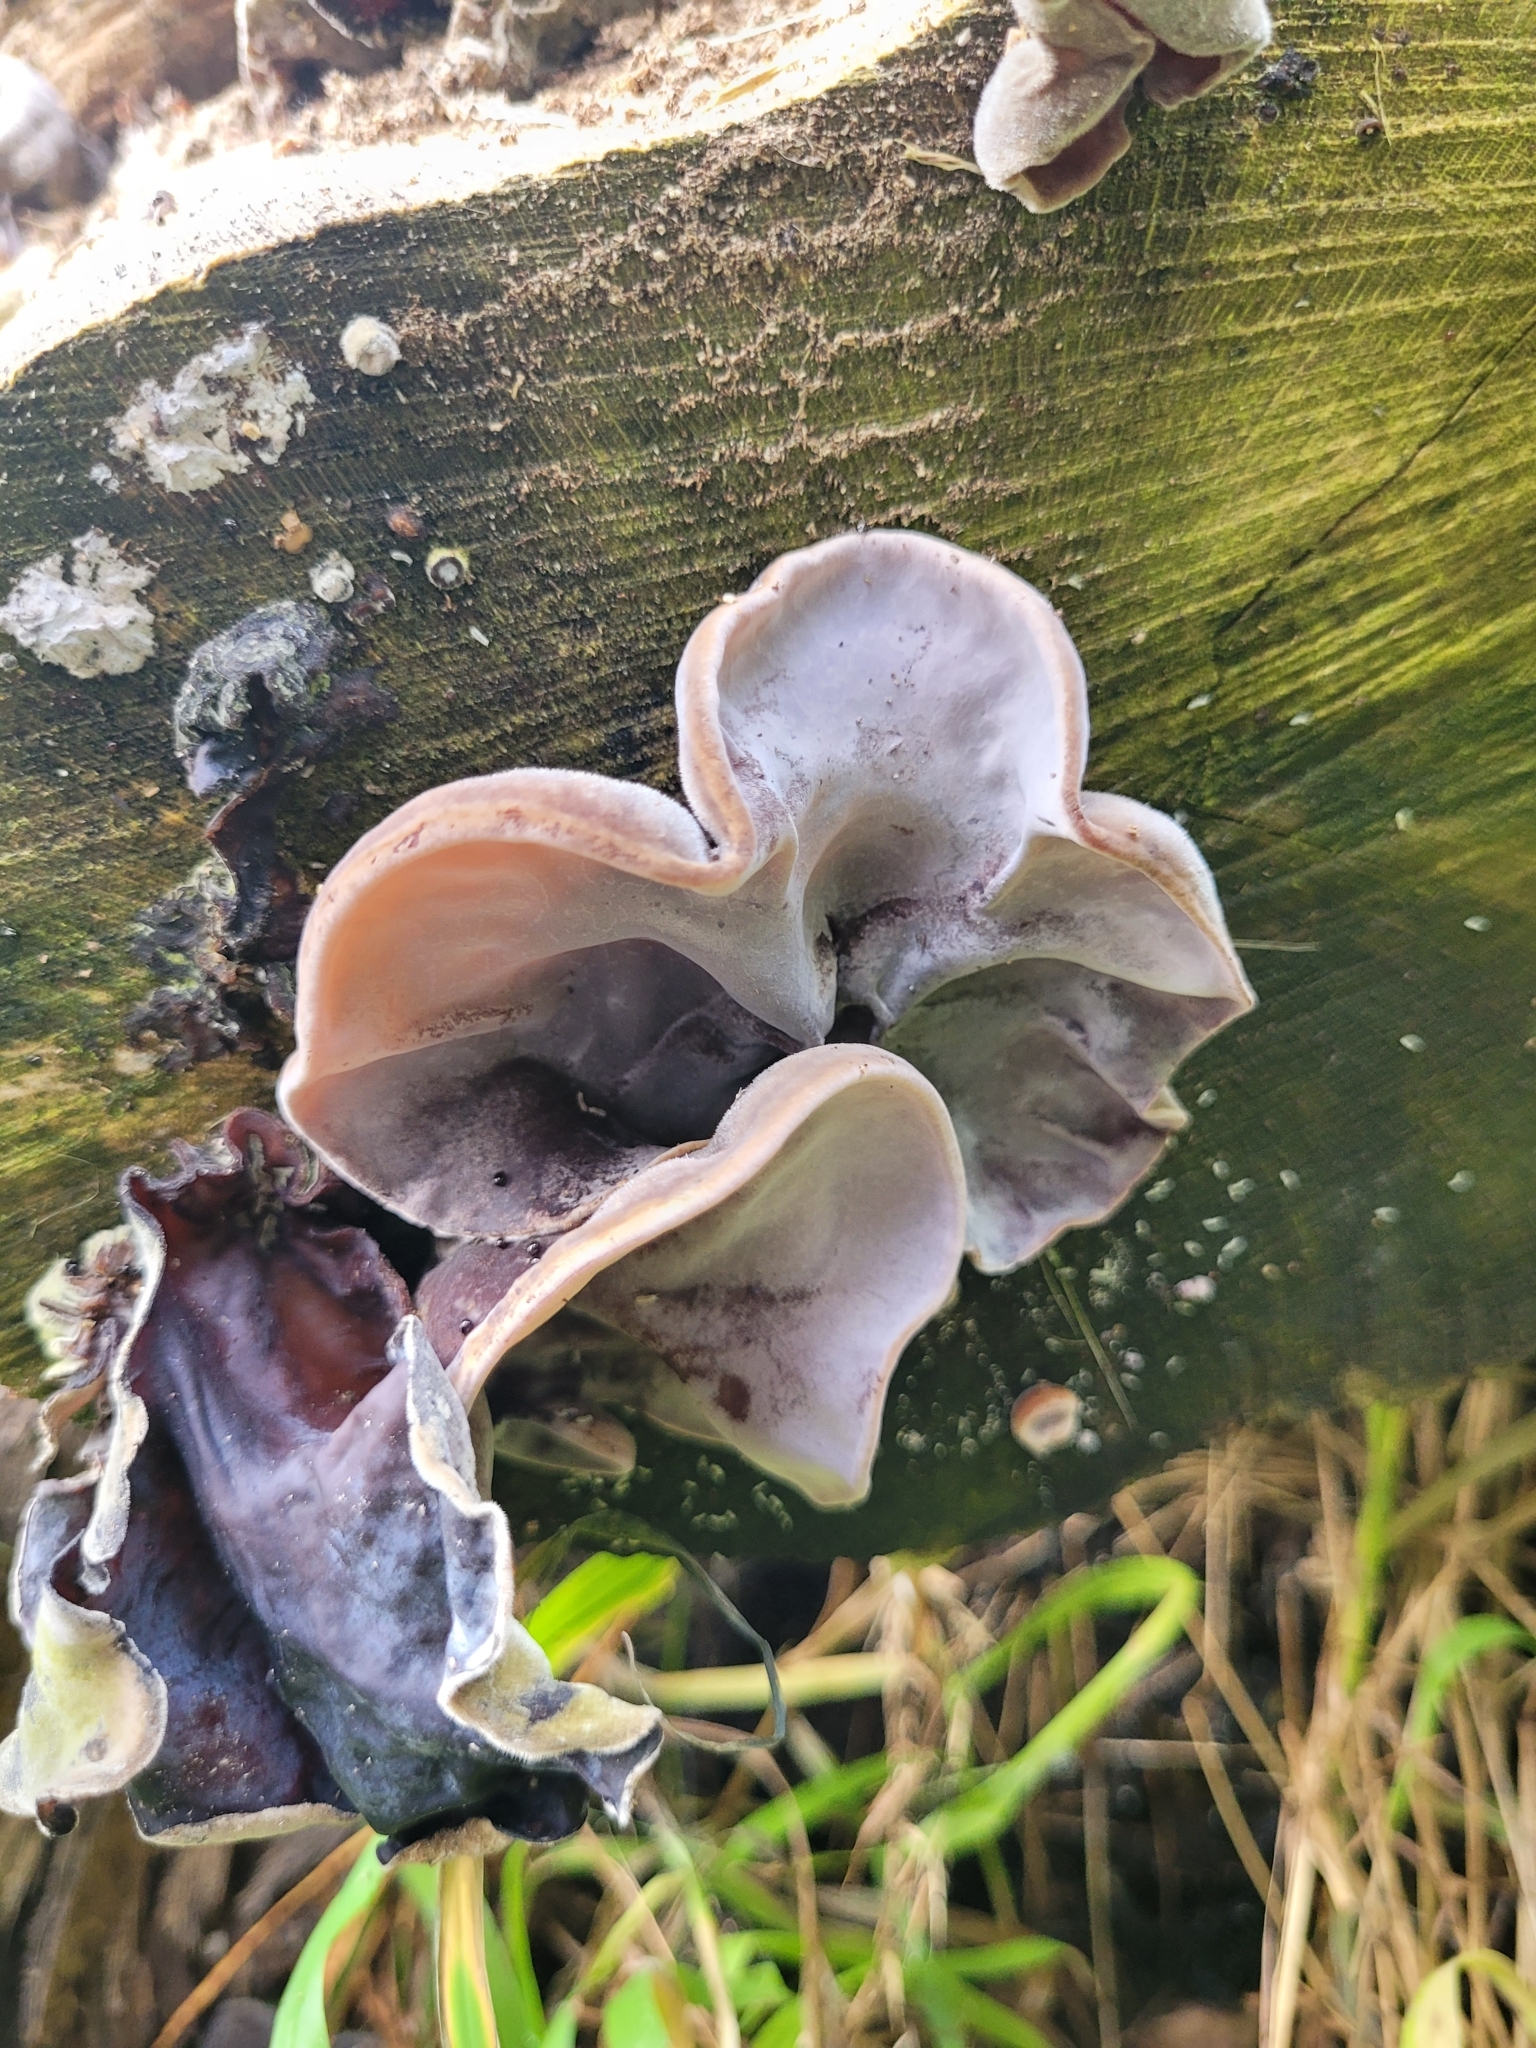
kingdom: Fungi
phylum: Basidiomycota
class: Agaricomycetes
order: Auriculariales
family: Auriculariaceae
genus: Auricularia
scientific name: Auricularia cornea
